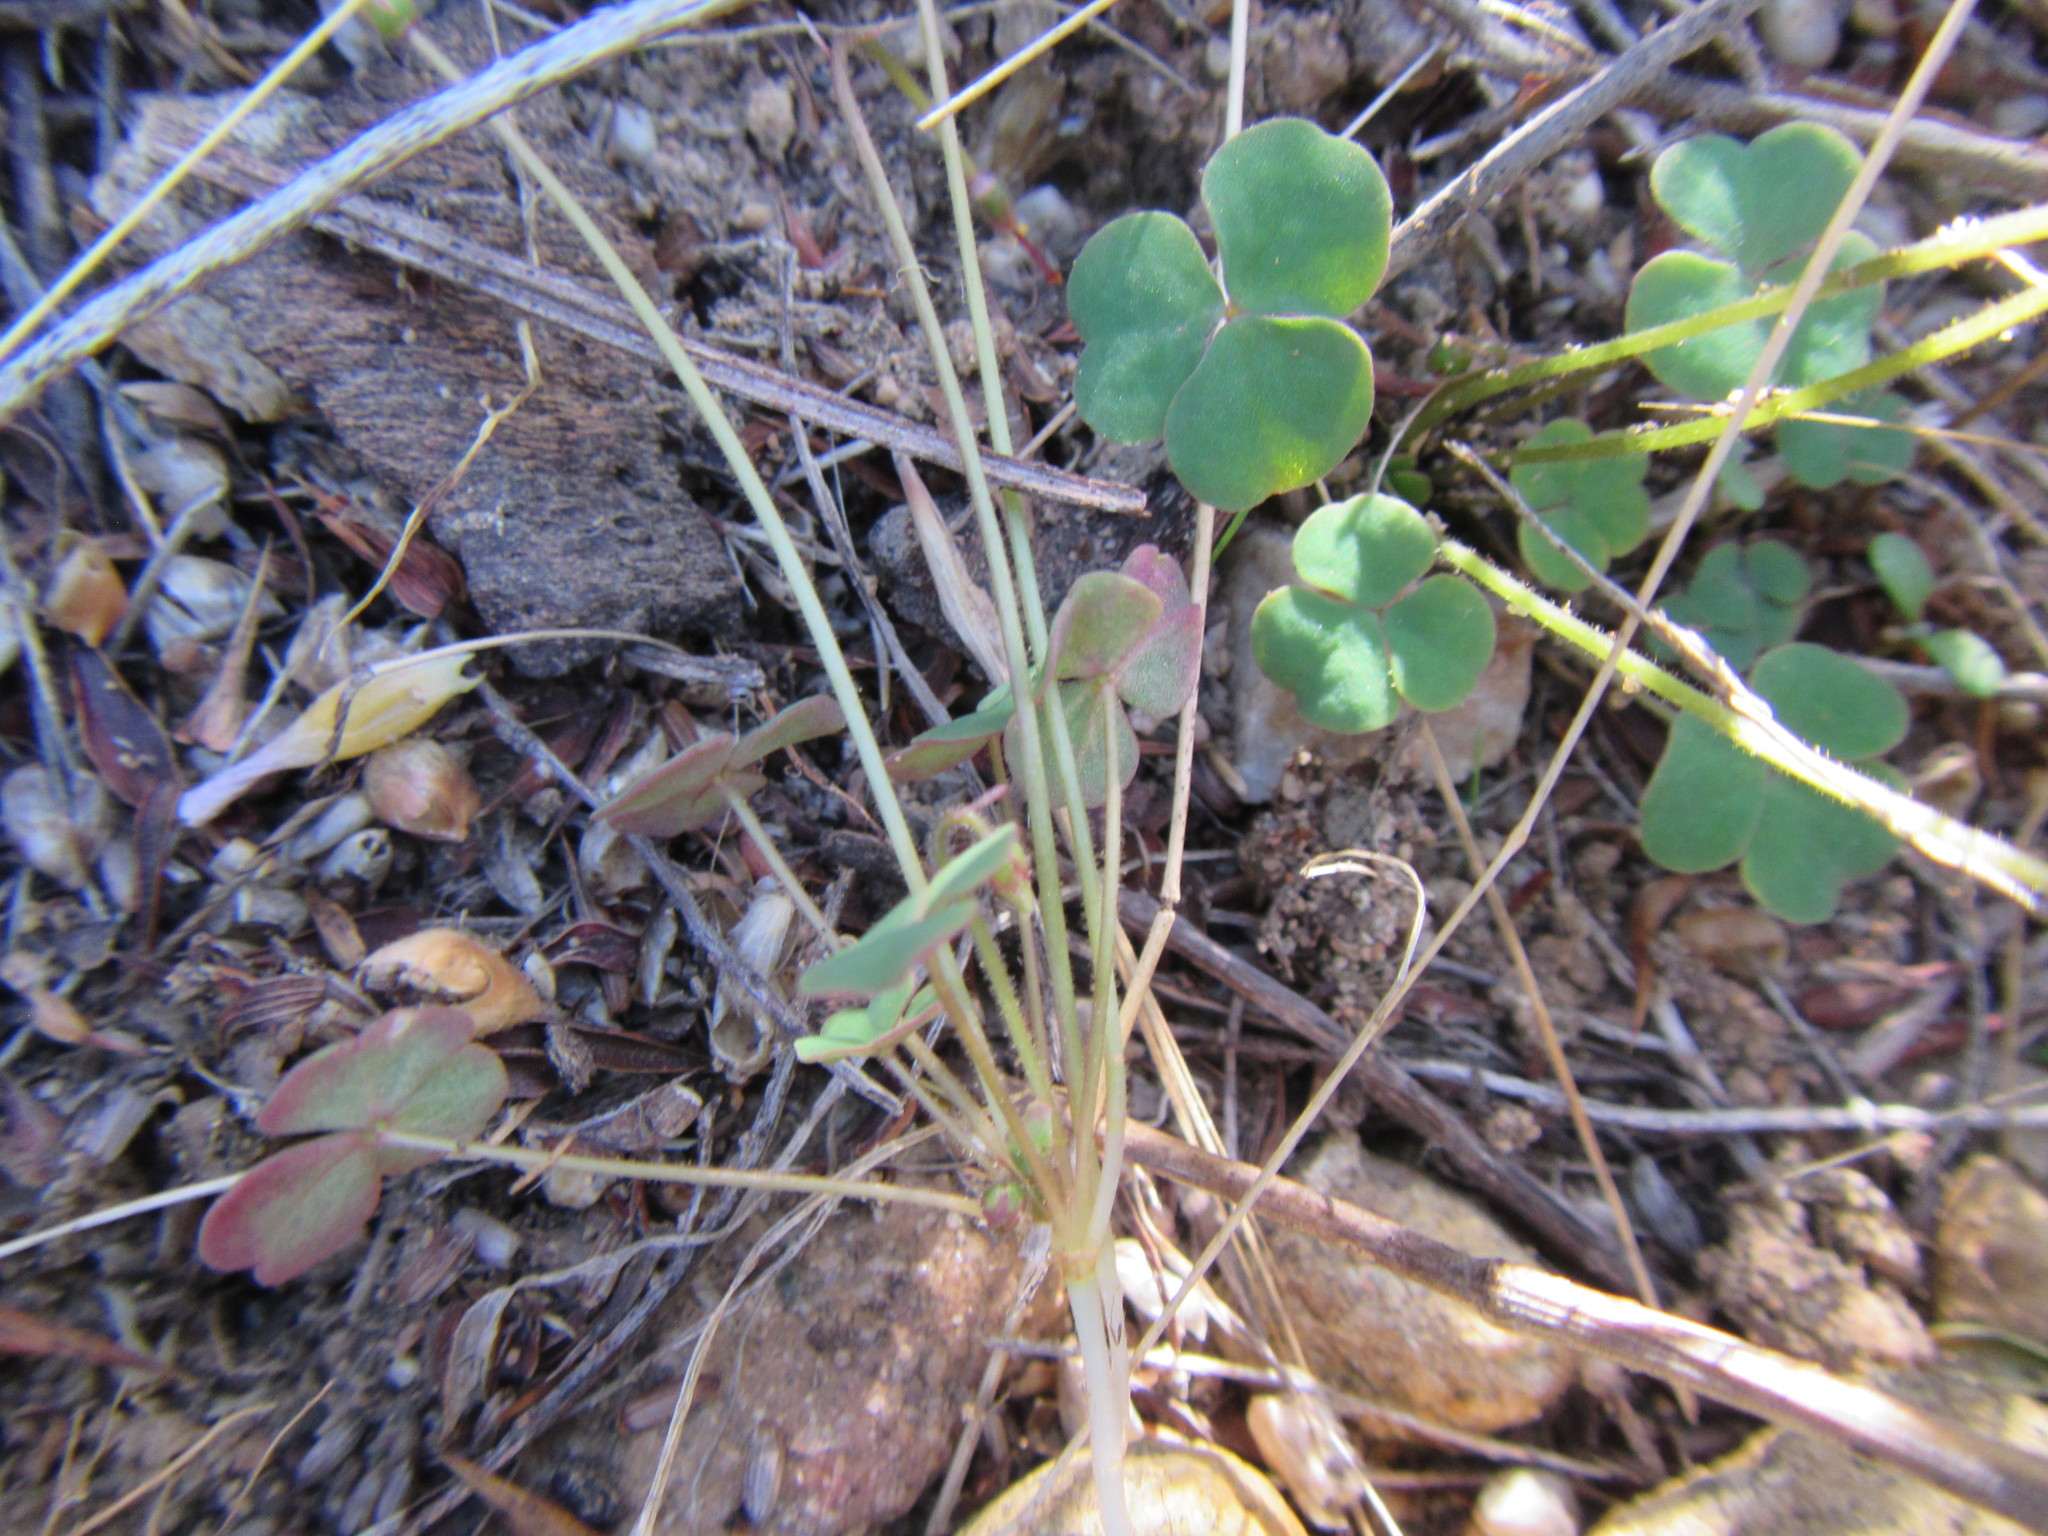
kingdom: Plantae
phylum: Tracheophyta
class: Magnoliopsida
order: Oxalidales
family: Oxalidaceae
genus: Oxalis
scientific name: Oxalis punctata
